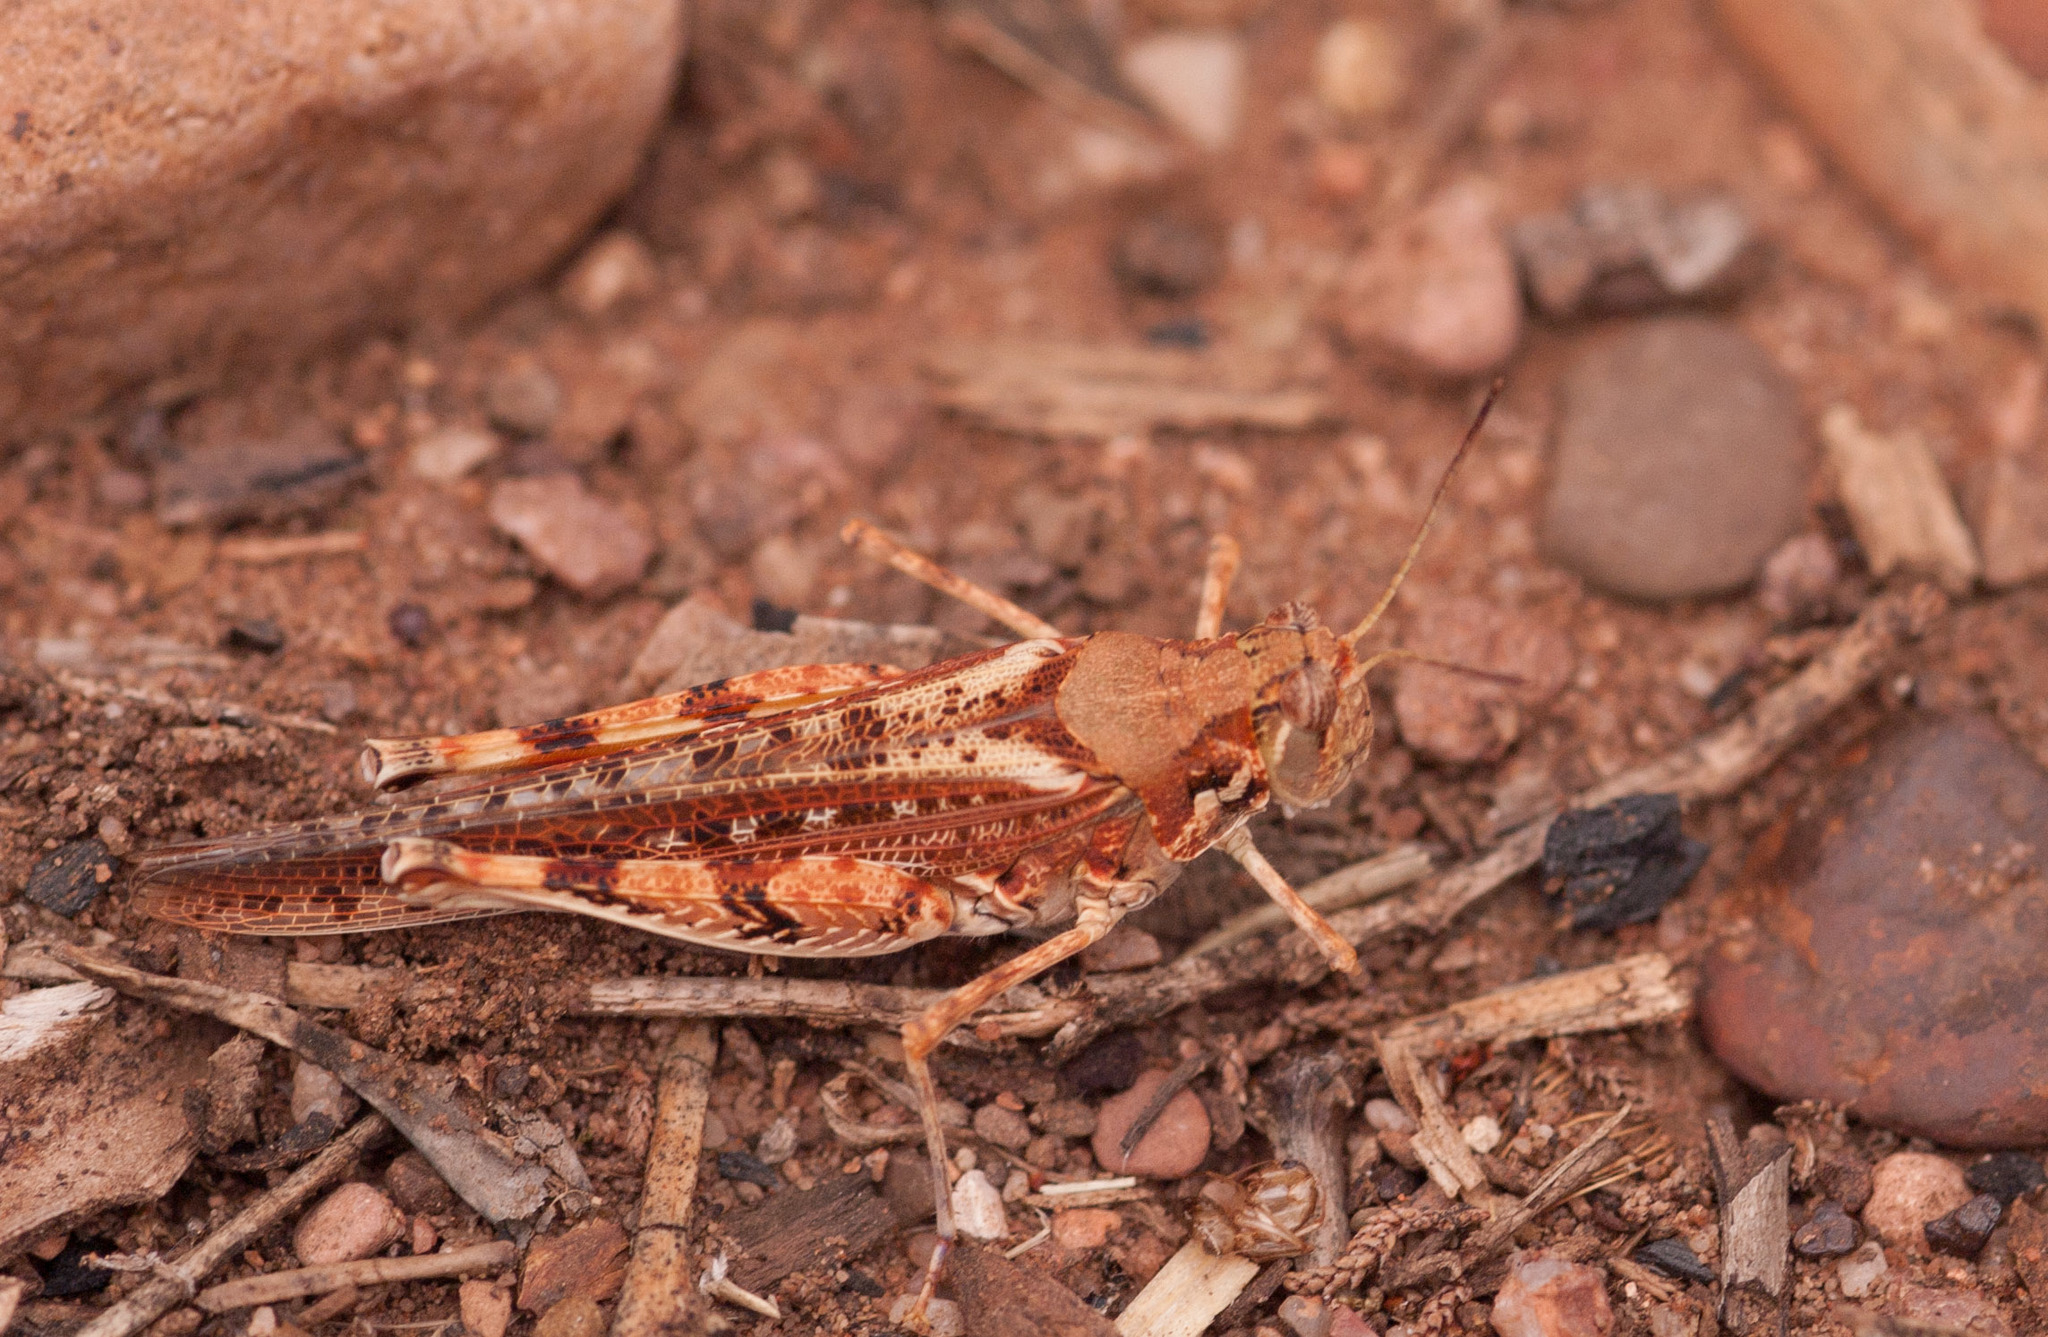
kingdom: Animalia
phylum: Arthropoda
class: Insecta
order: Orthoptera
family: Acrididae
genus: Urnisa
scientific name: Urnisa guttulosa
